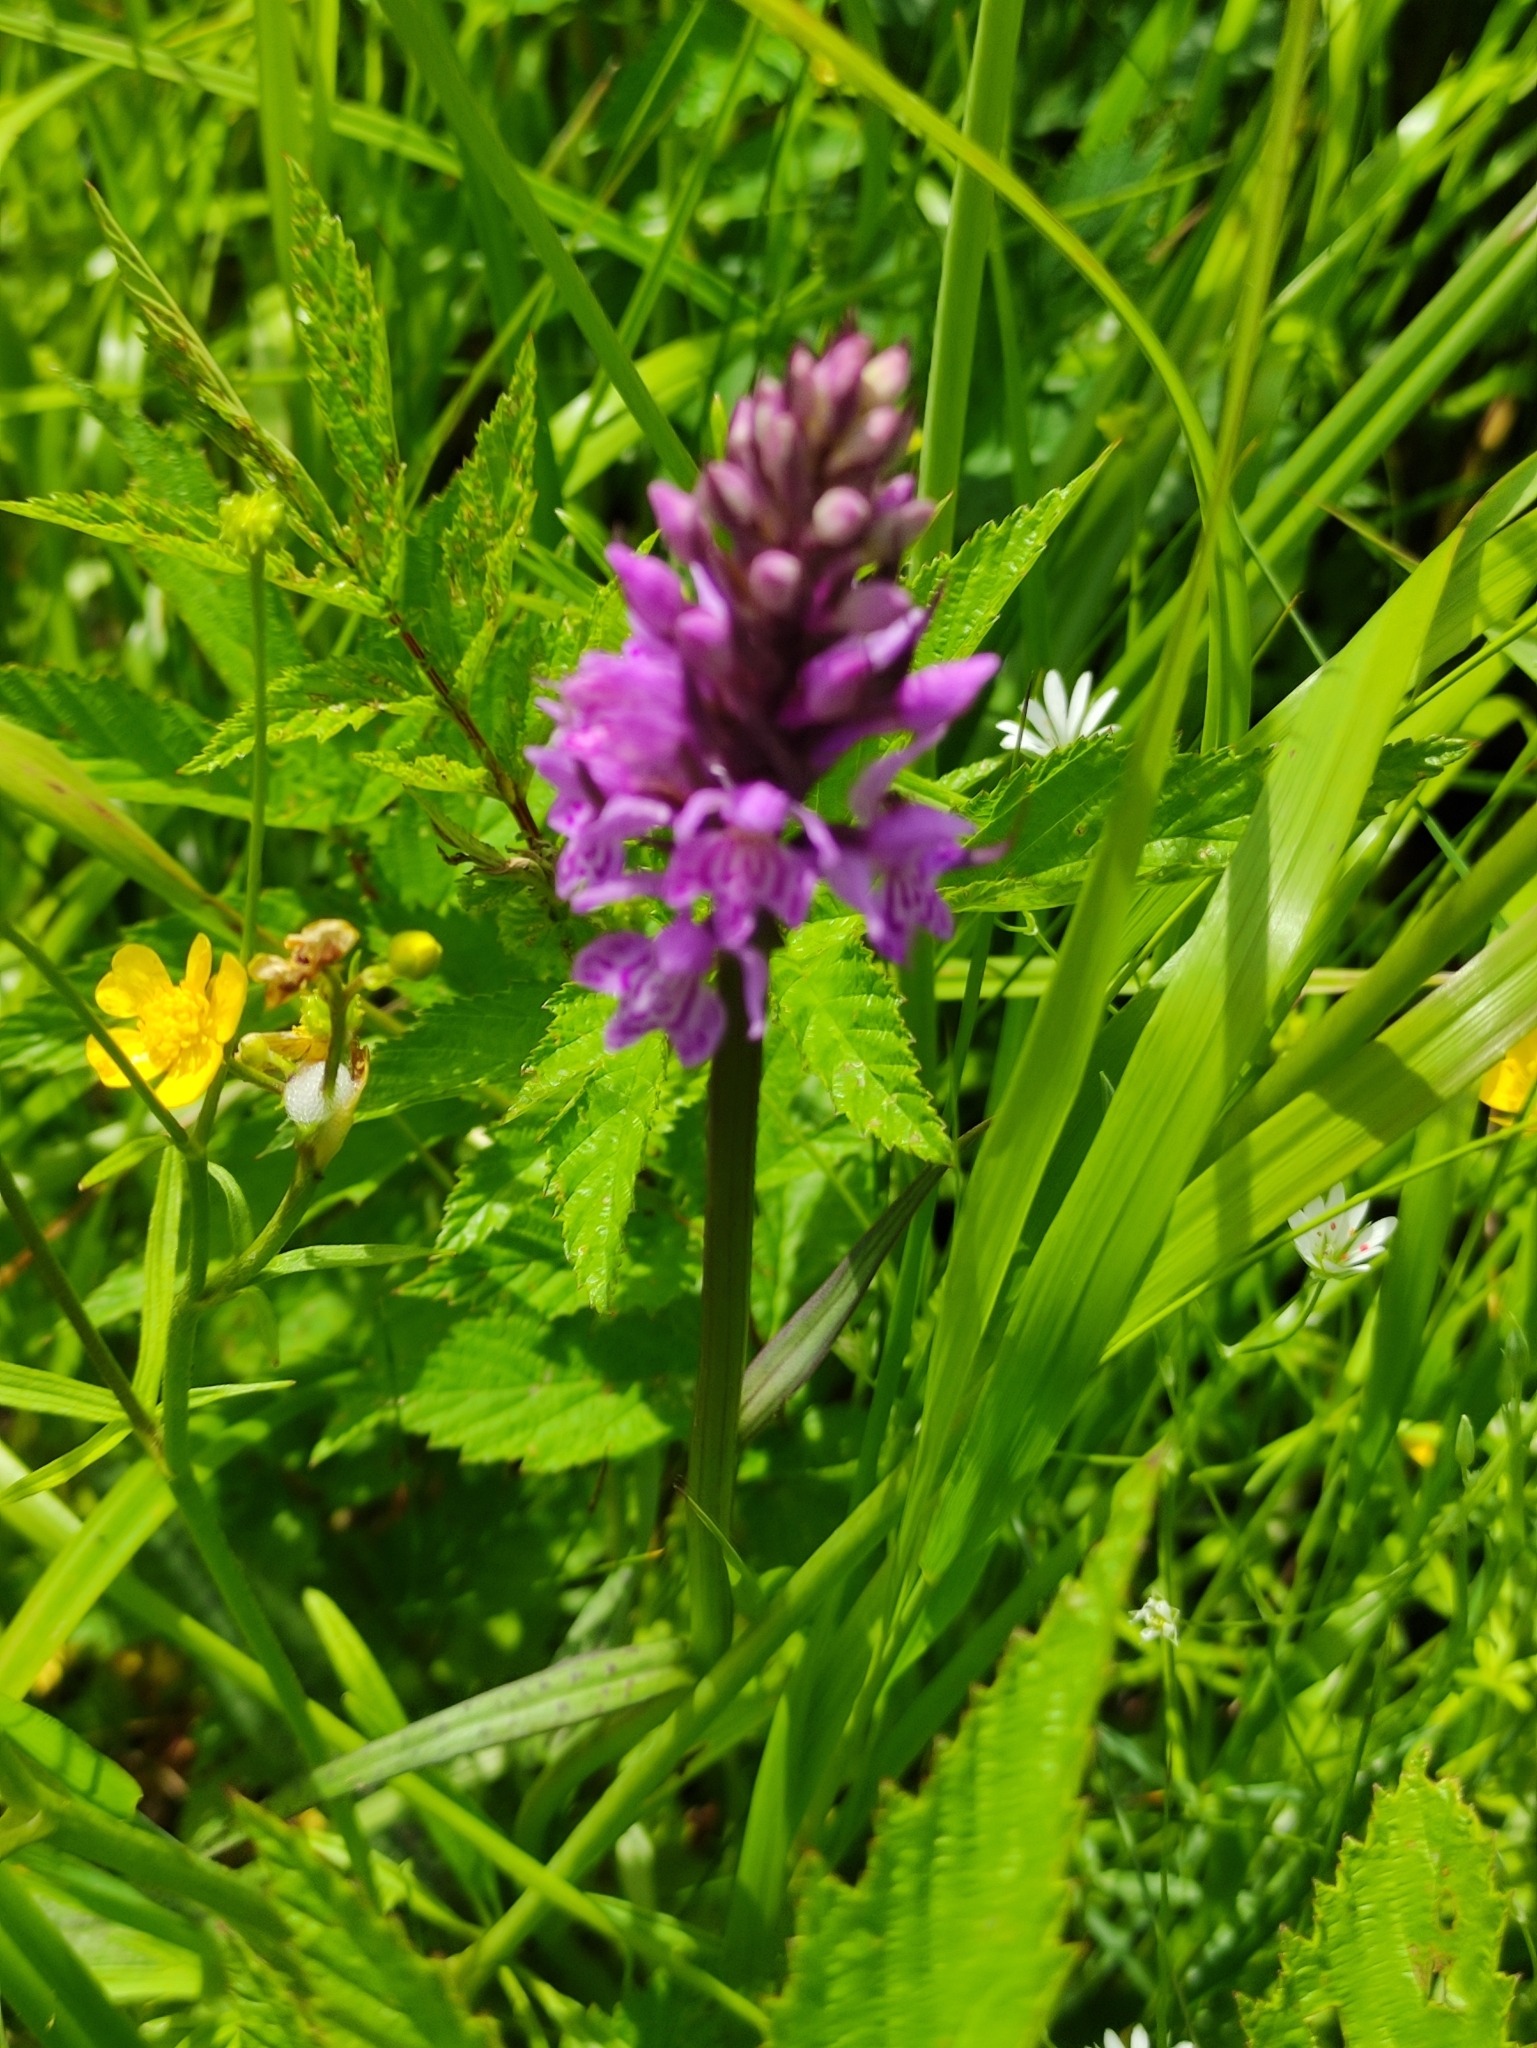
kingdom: Plantae
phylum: Tracheophyta
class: Liliopsida
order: Asparagales
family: Orchidaceae
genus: Dactylorhiza
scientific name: Dactylorhiza majalis
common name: Marsh orchid
